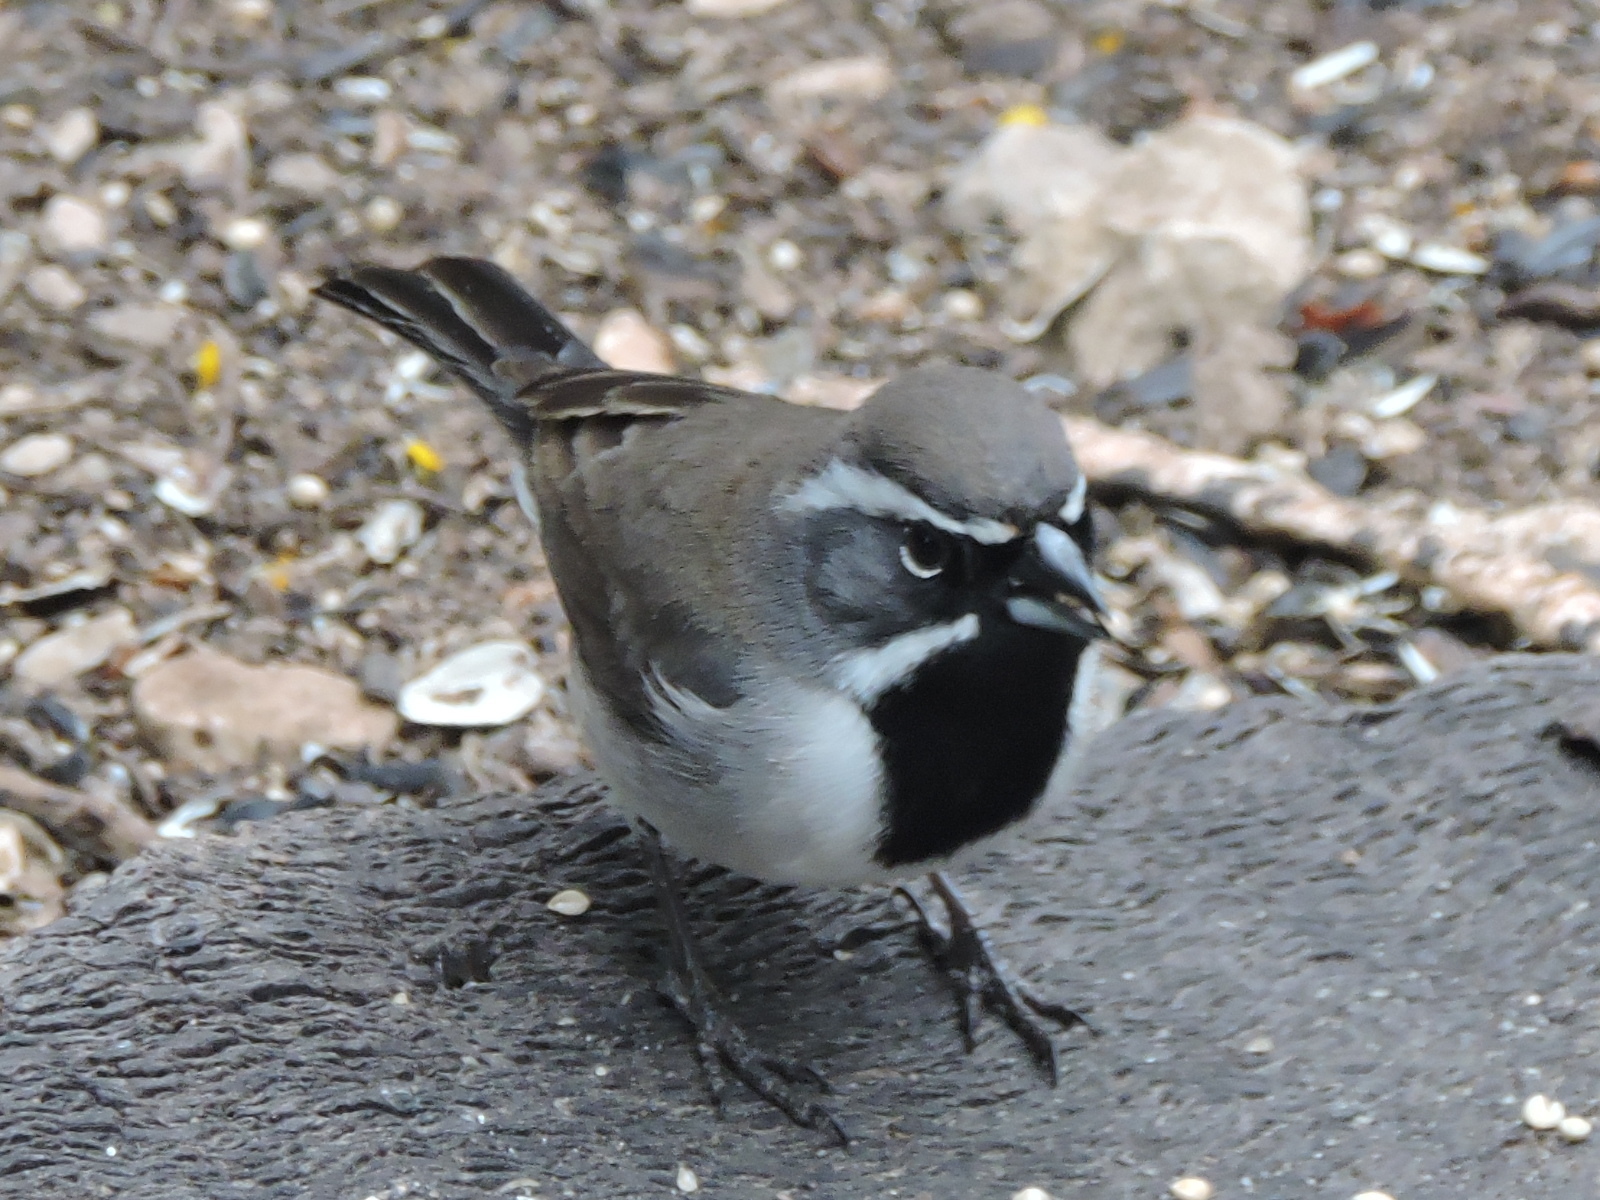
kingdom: Animalia
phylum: Chordata
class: Aves
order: Passeriformes
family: Passerellidae
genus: Amphispiza
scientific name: Amphispiza bilineata
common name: Black-throated sparrow
